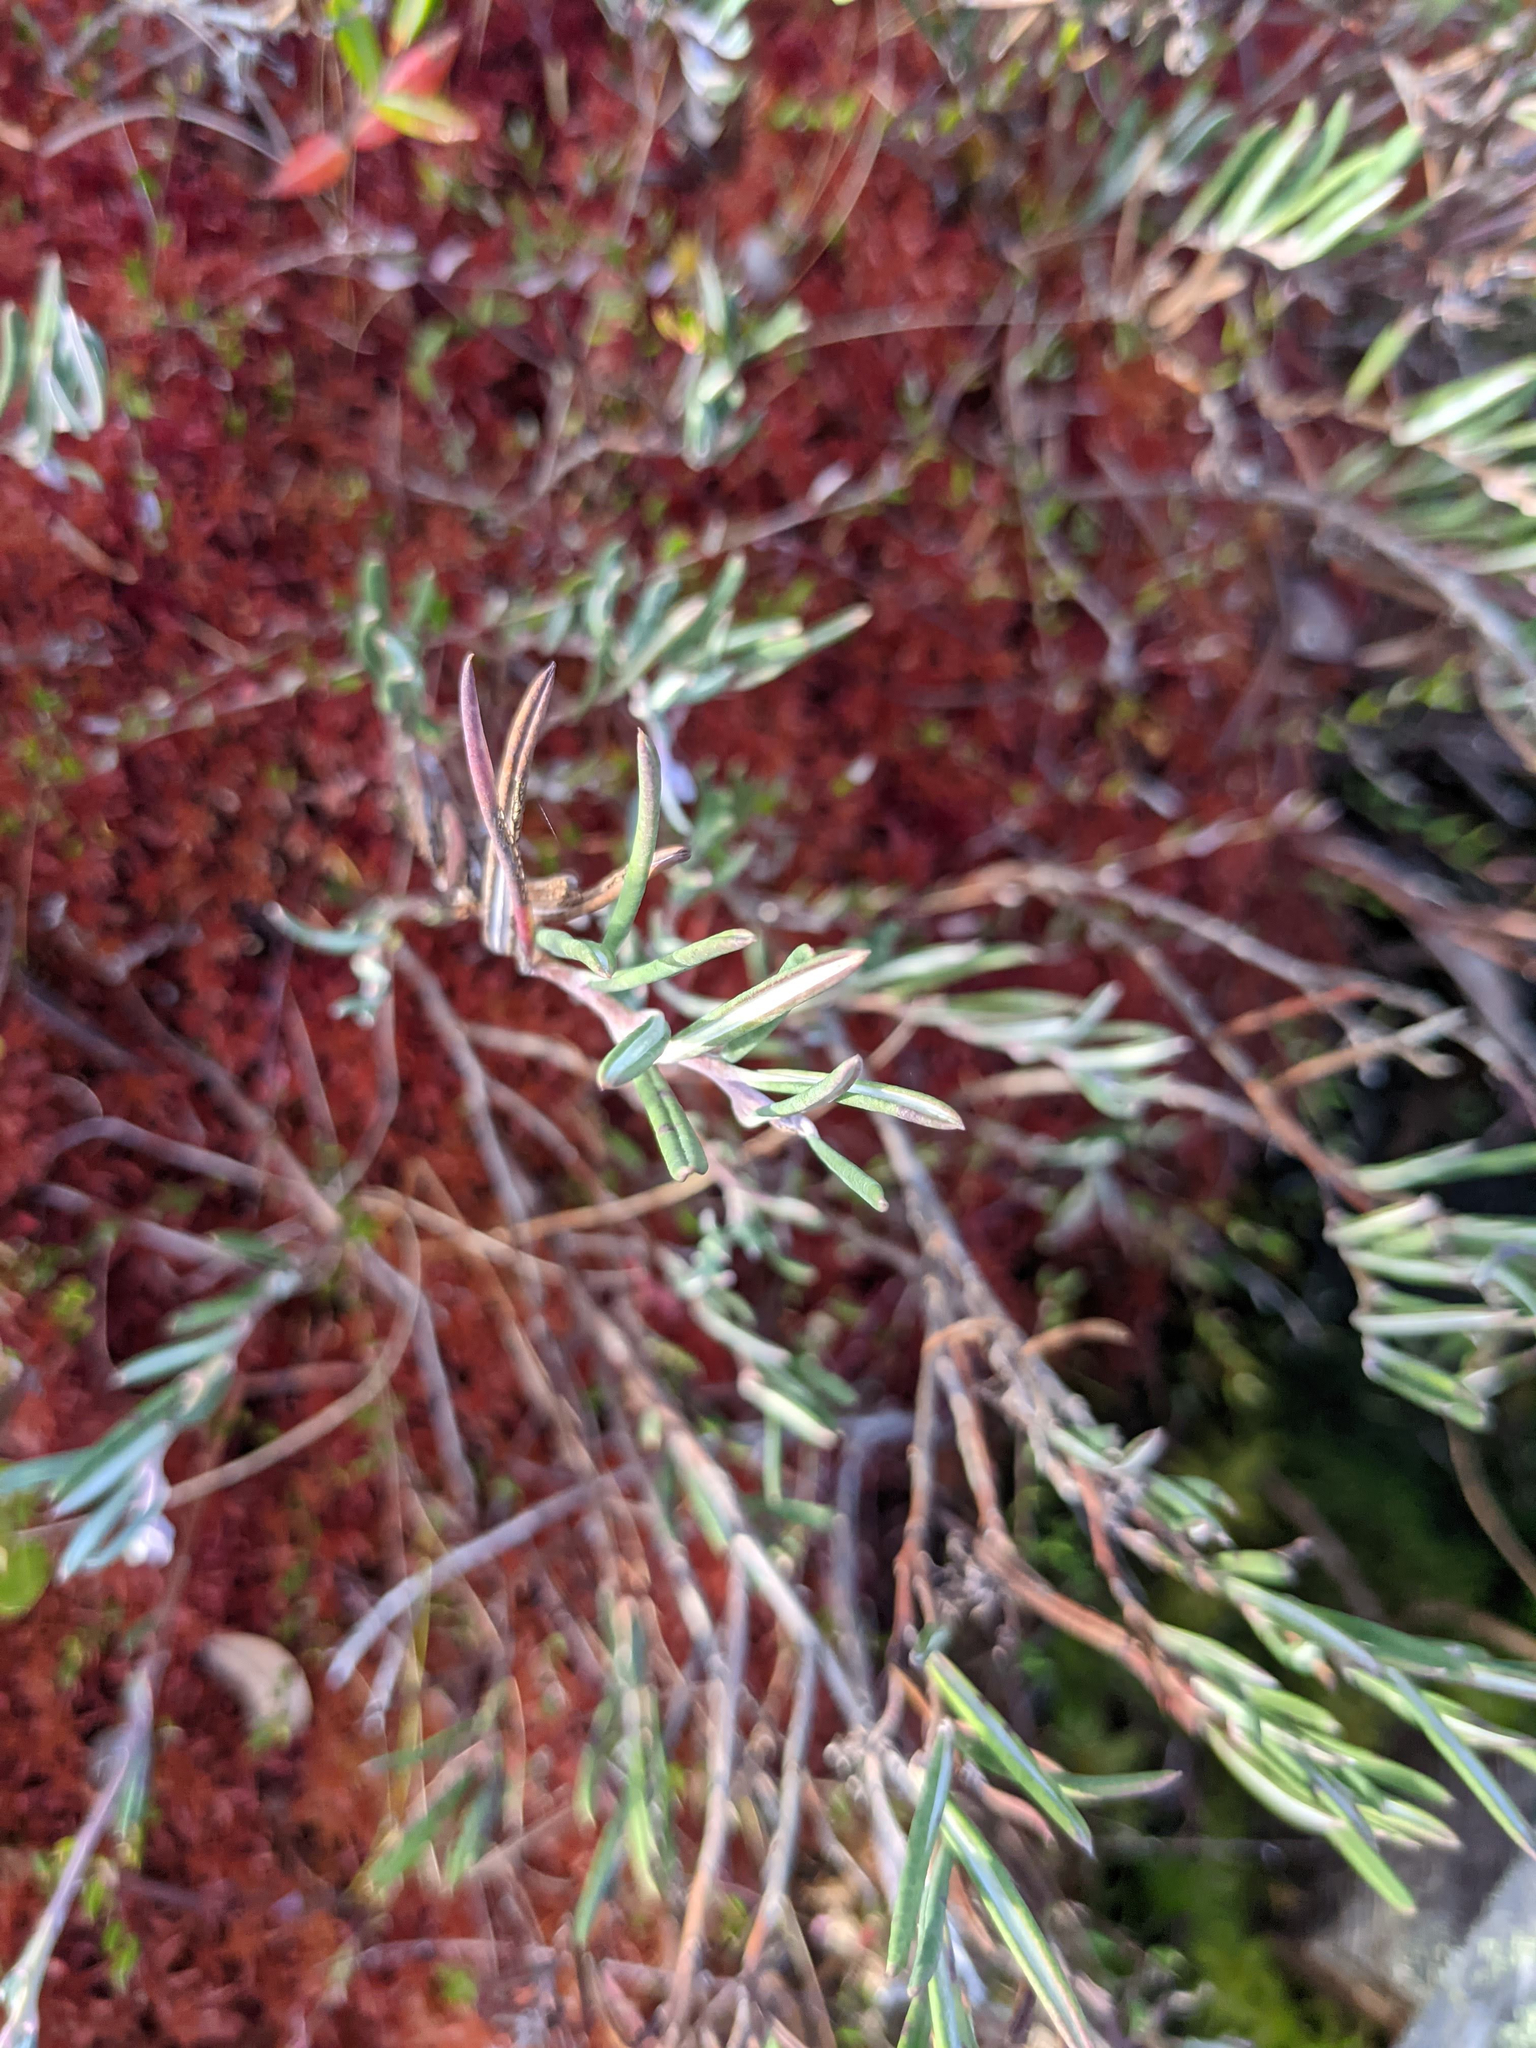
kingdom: Plantae
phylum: Tracheophyta
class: Magnoliopsida
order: Ericales
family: Ericaceae
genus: Andromeda
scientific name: Andromeda polifolia
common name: Bog-rosemary
